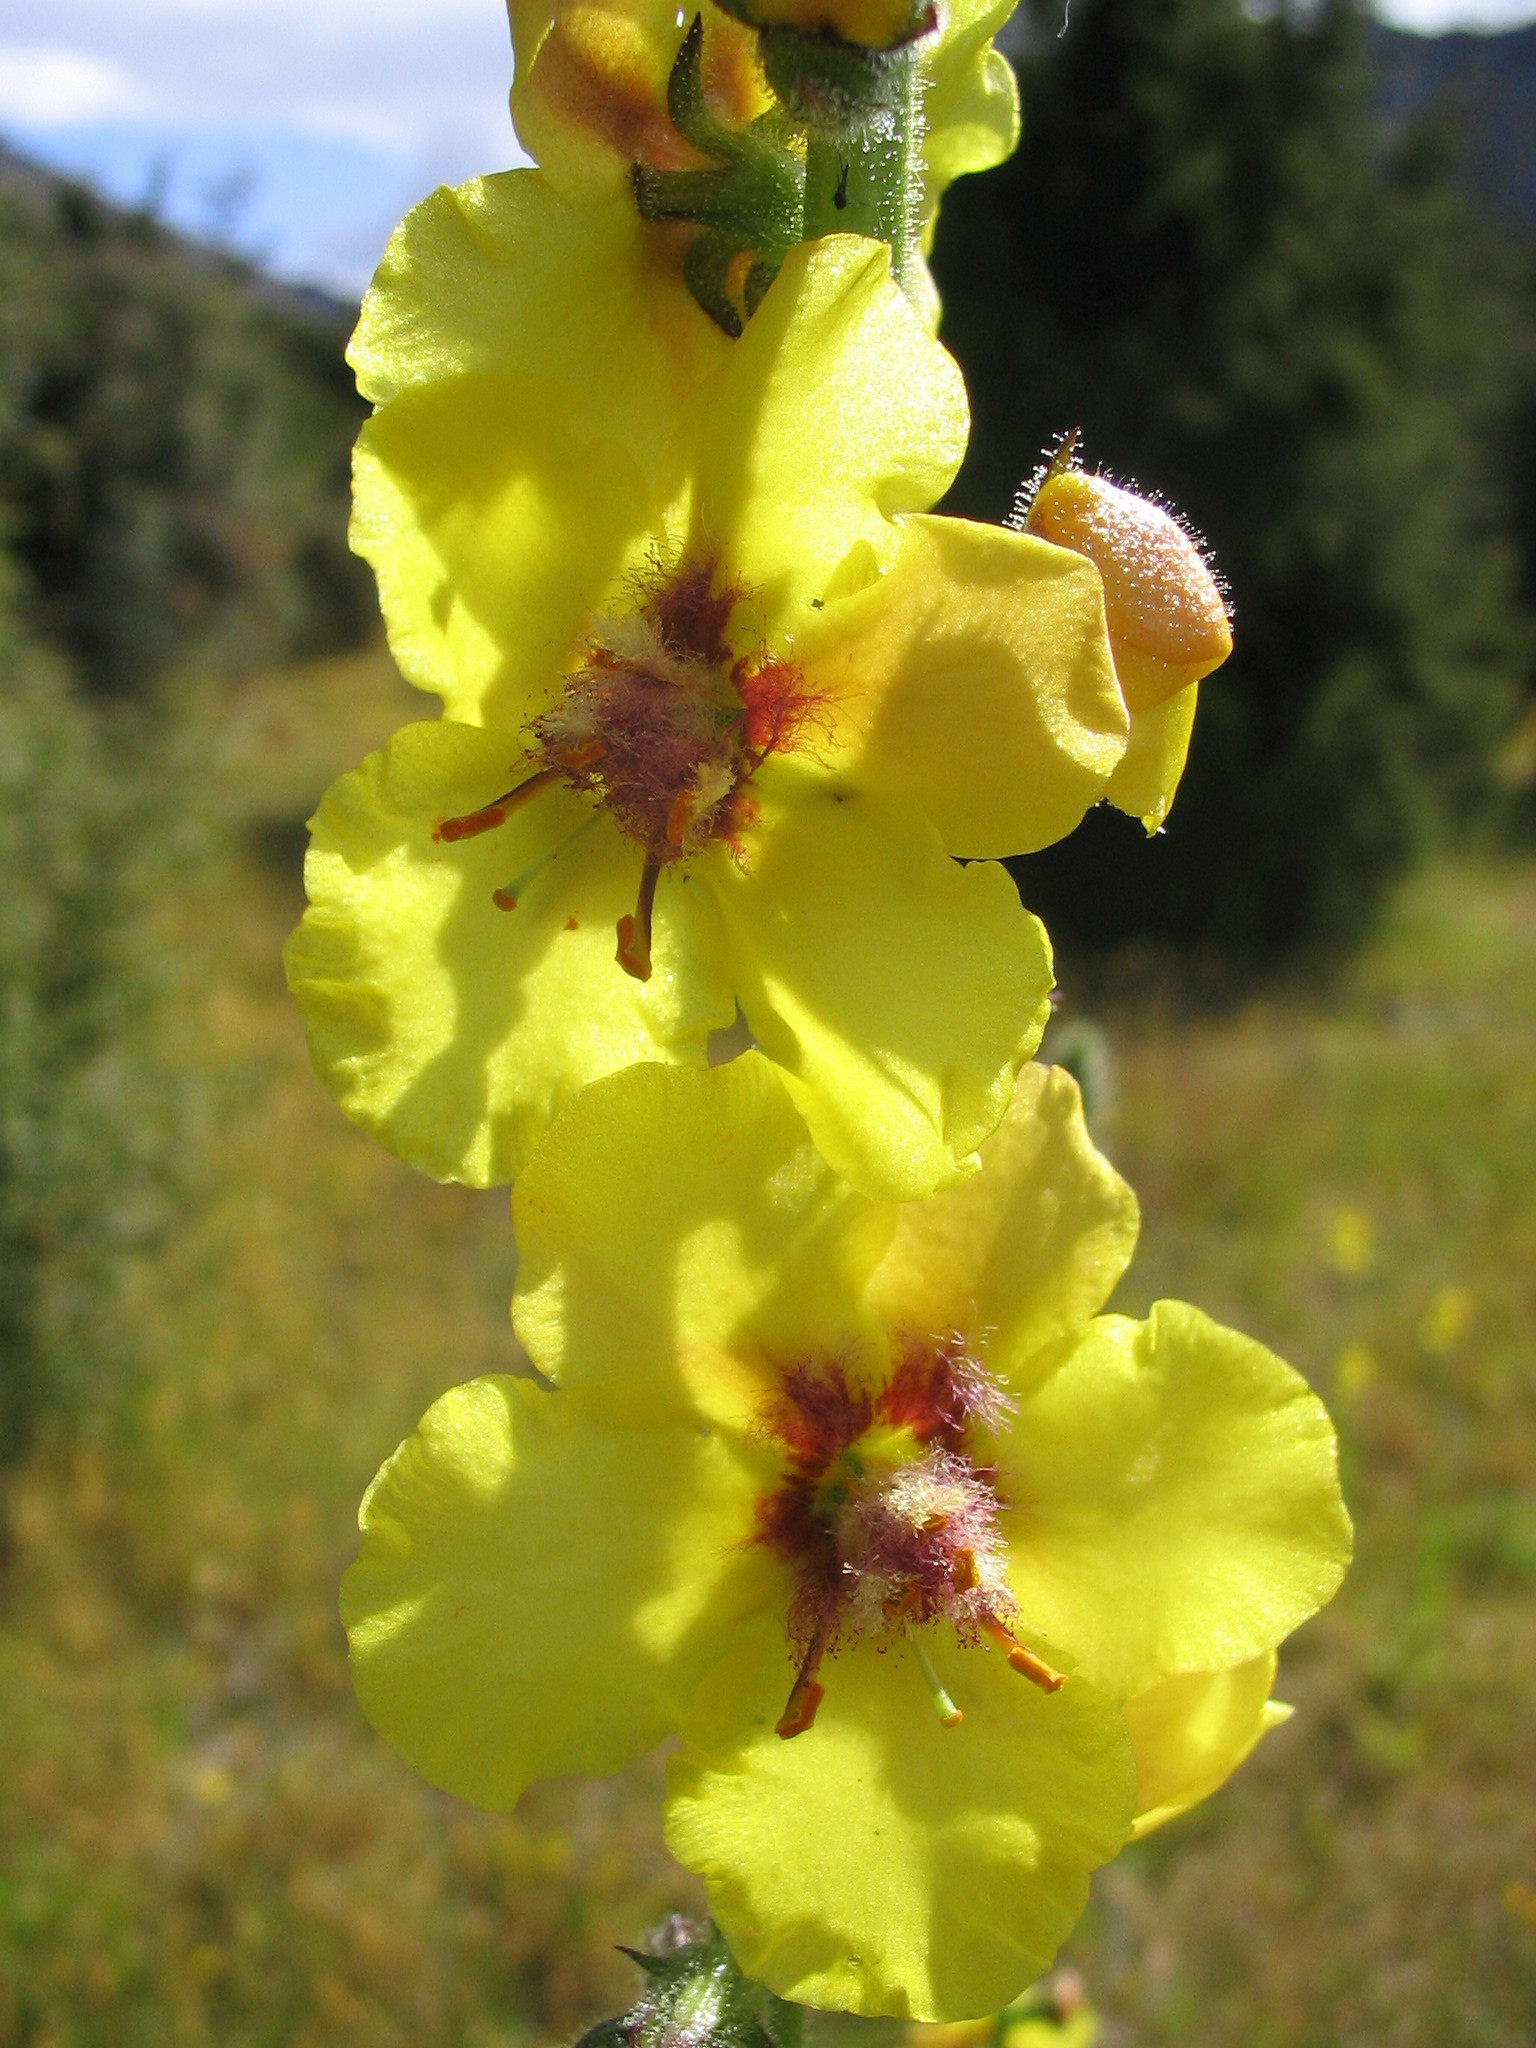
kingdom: Plantae
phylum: Tracheophyta
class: Magnoliopsida
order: Lamiales
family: Scrophulariaceae
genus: Verbascum
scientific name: Verbascum virgatum
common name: Twiggy mullein
